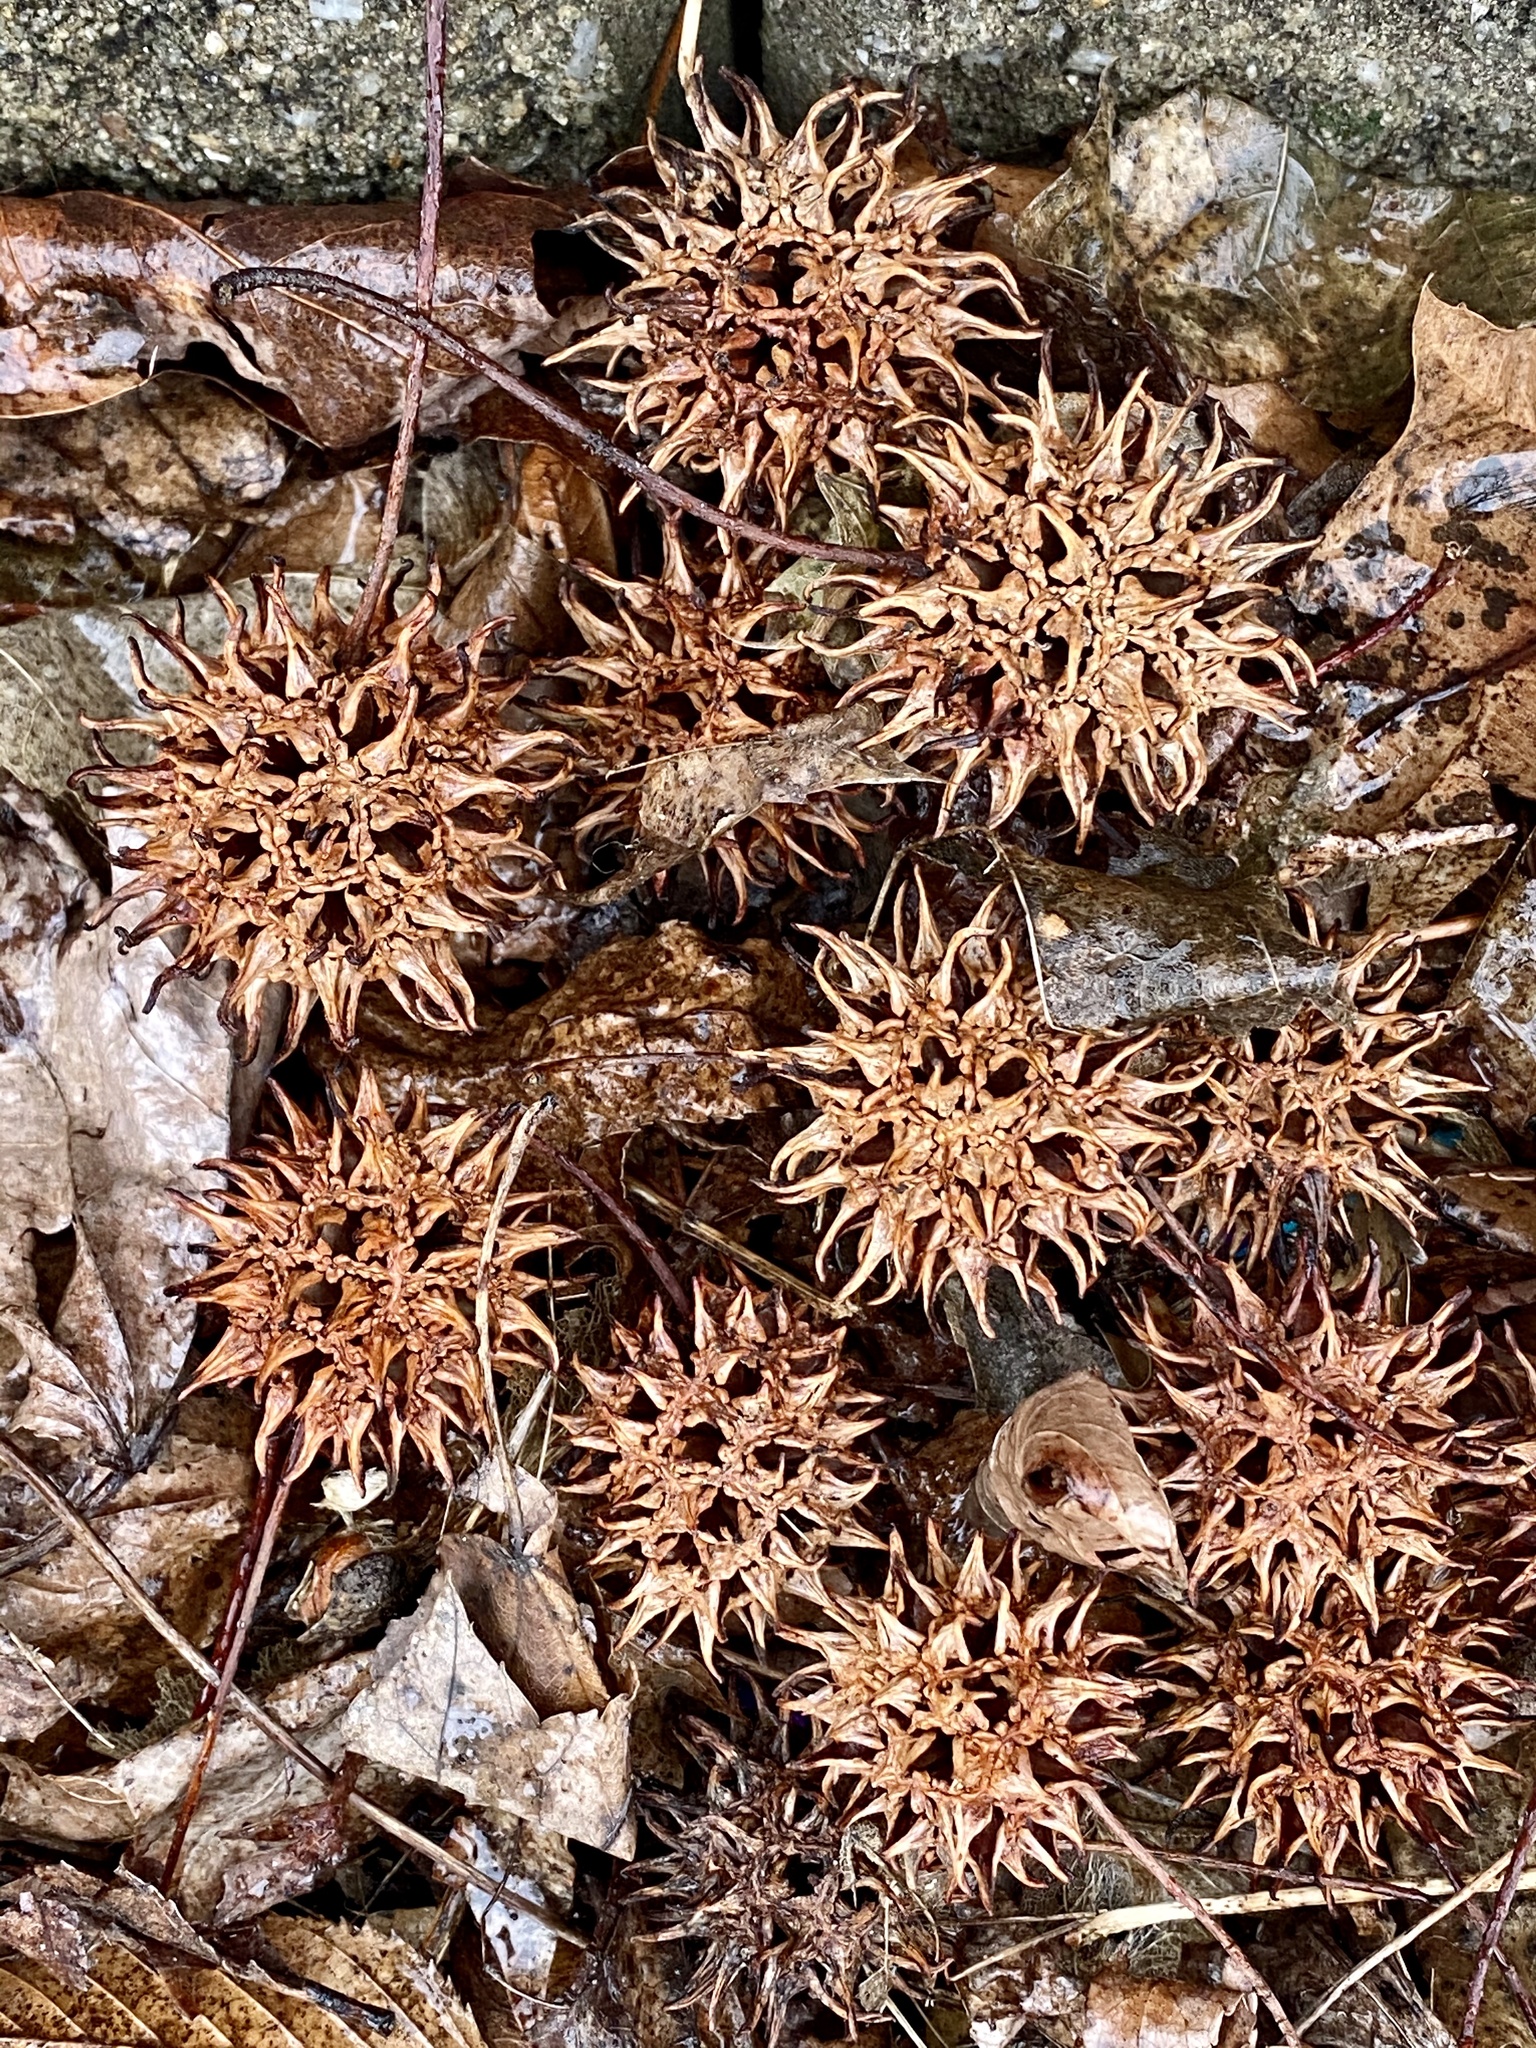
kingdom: Plantae
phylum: Tracheophyta
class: Magnoliopsida
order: Saxifragales
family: Altingiaceae
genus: Liquidambar
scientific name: Liquidambar styraciflua
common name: Sweet gum
